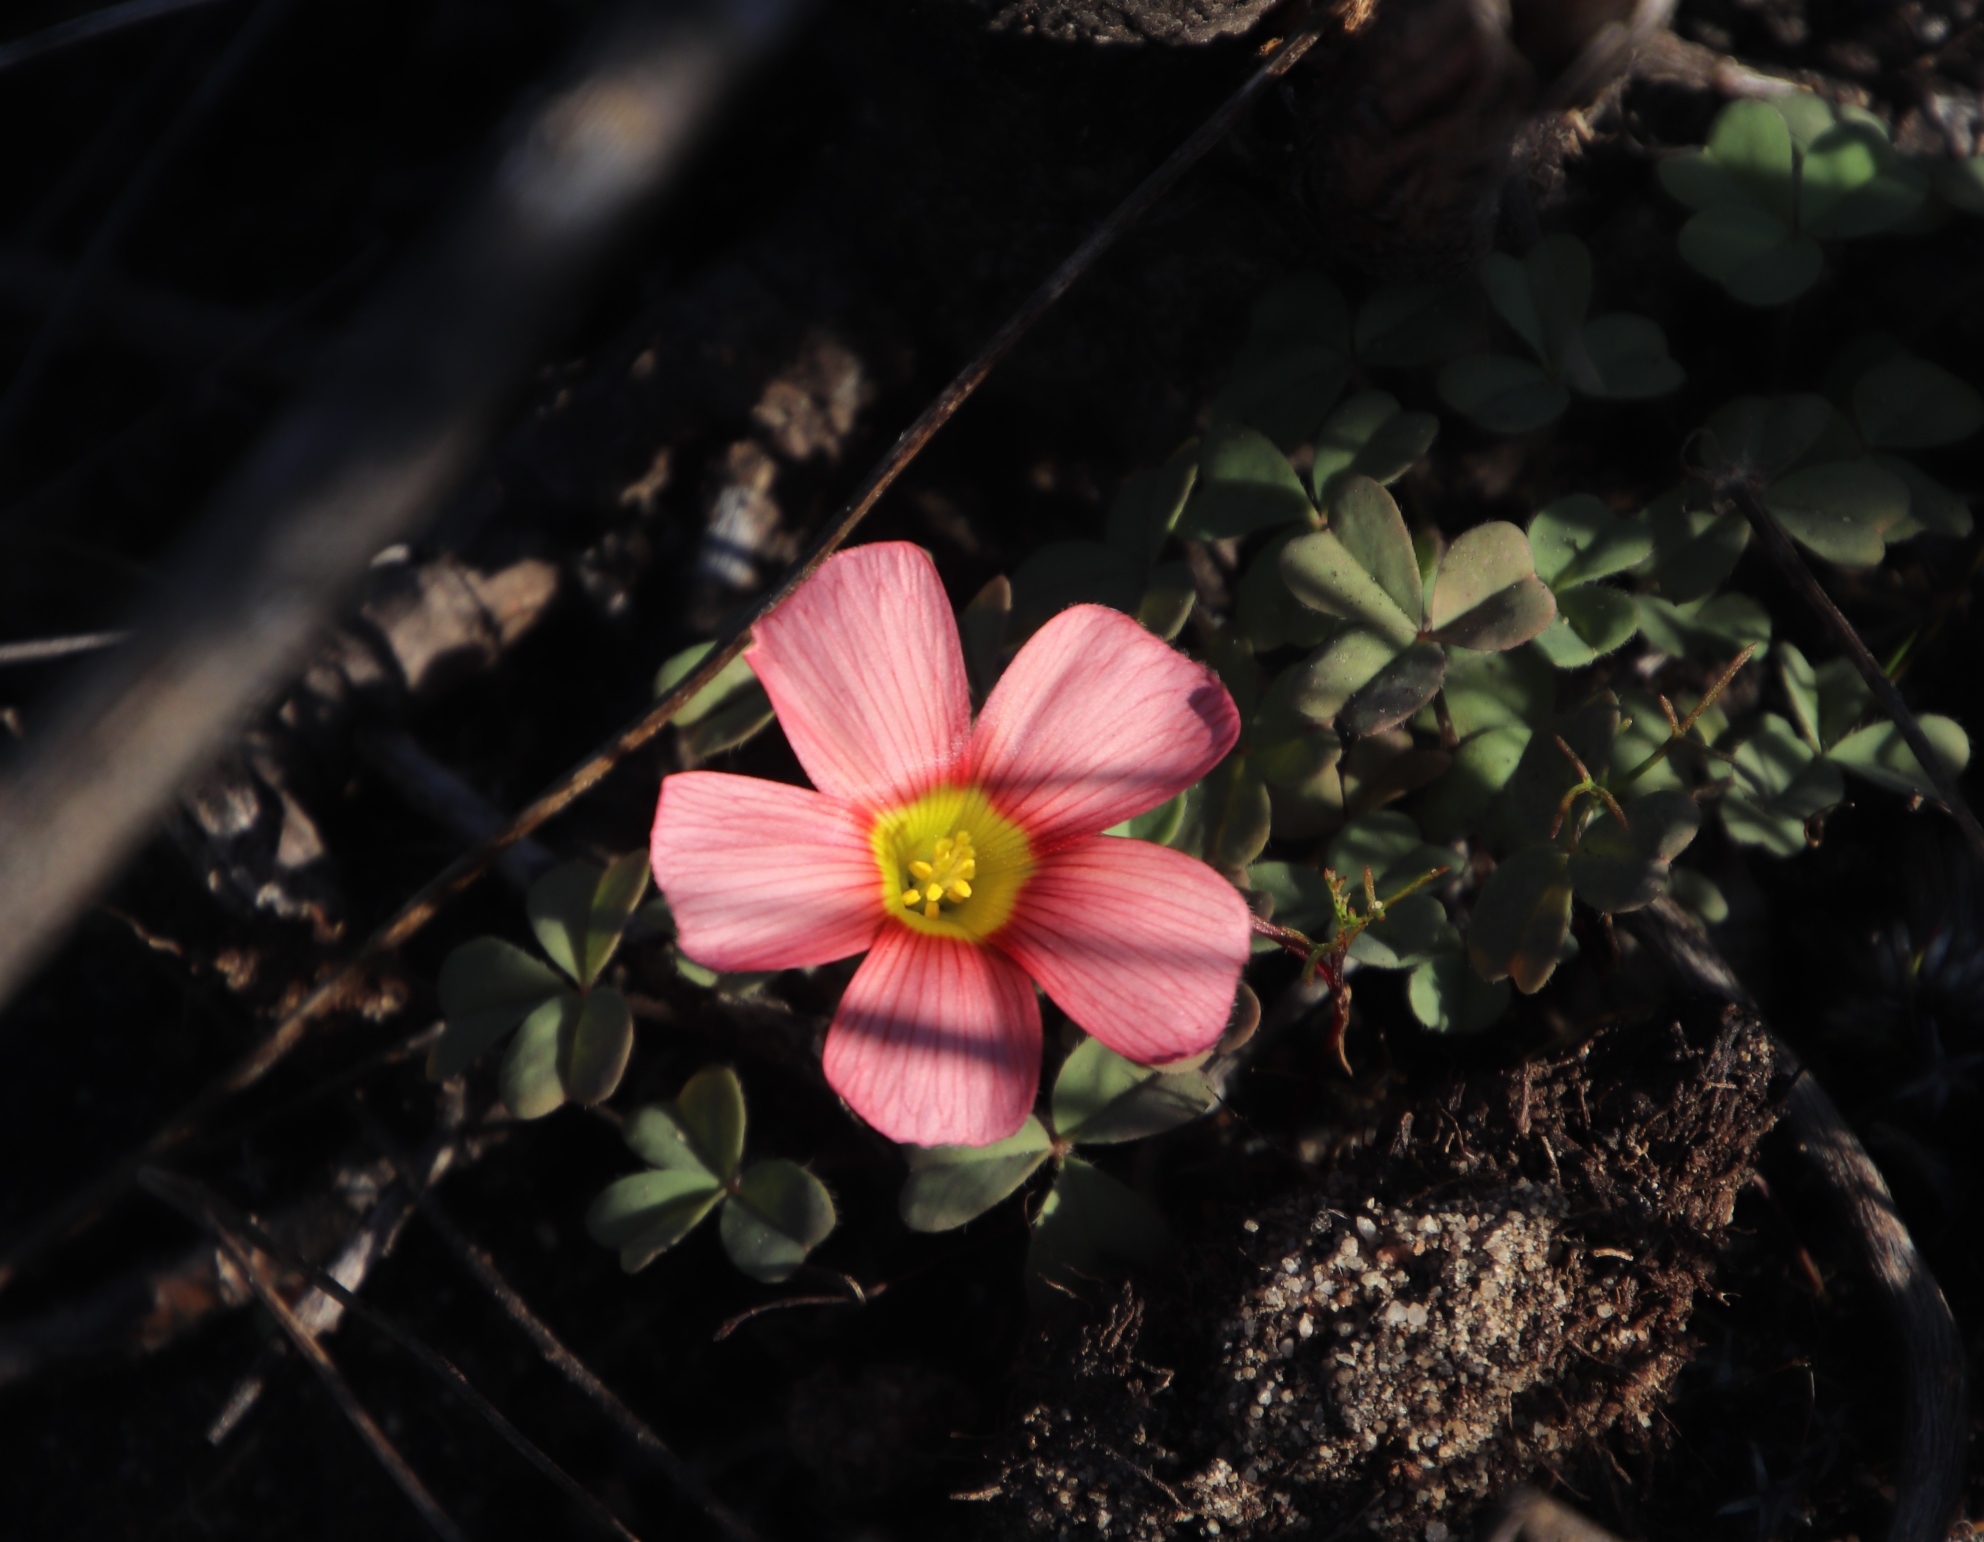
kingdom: Plantae
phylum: Tracheophyta
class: Magnoliopsida
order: Oxalidales
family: Oxalidaceae
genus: Oxalis
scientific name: Oxalis obtusa
